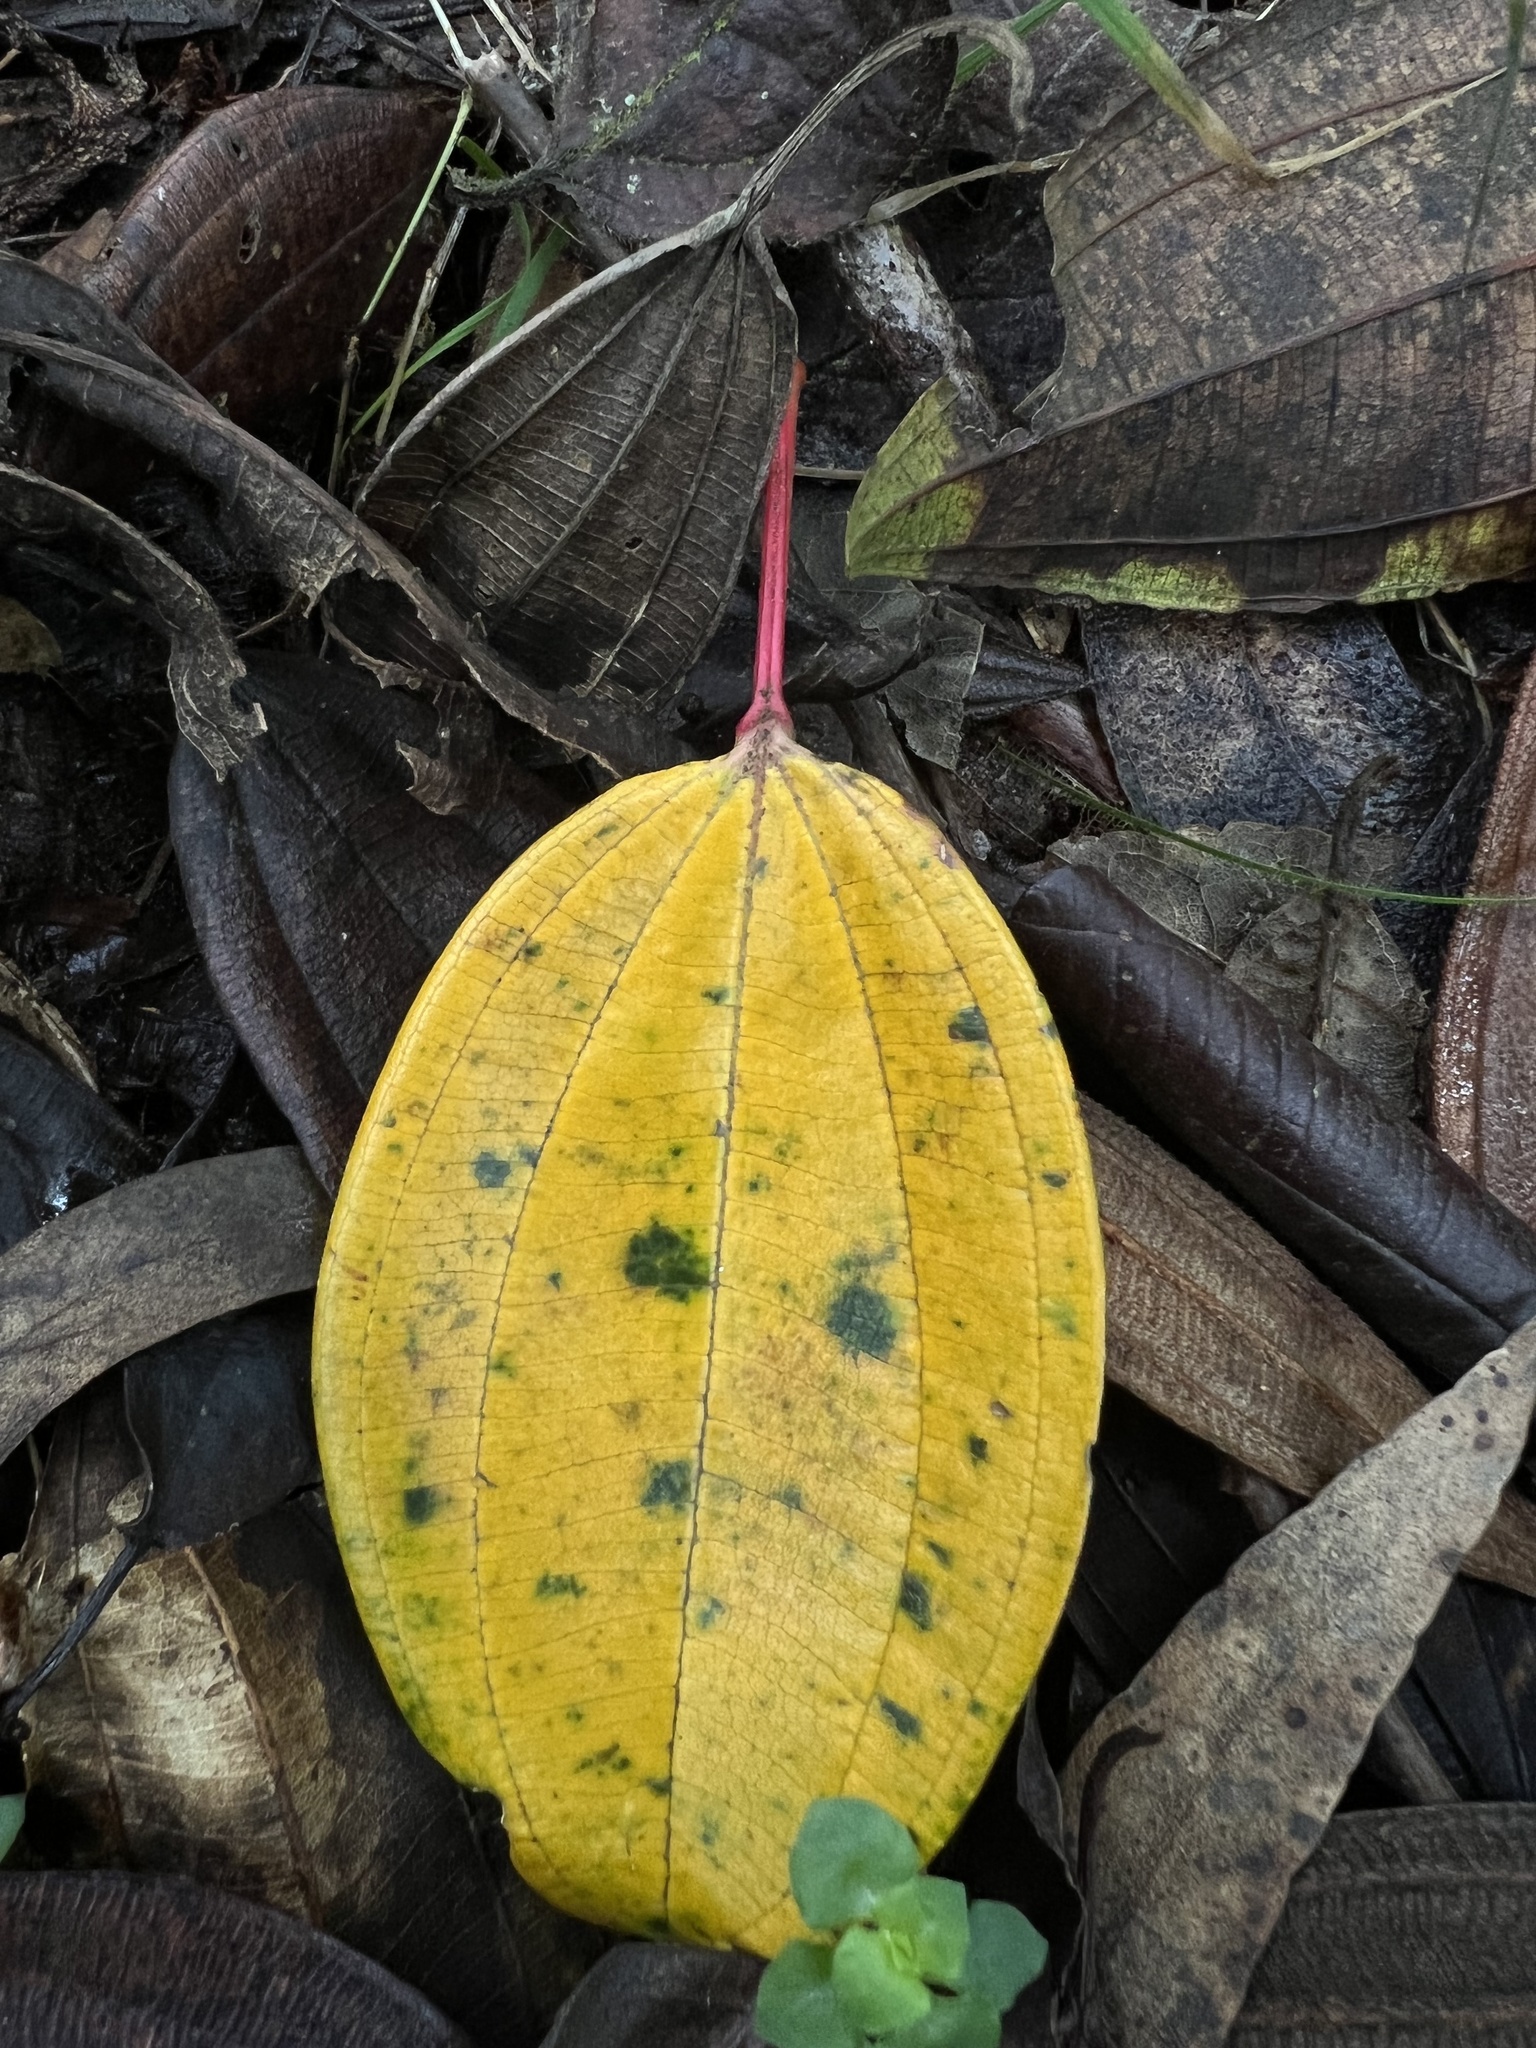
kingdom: Plantae
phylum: Tracheophyta
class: Magnoliopsida
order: Myrtales
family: Melastomataceae
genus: Axinaea
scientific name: Axinaea macrophylla
